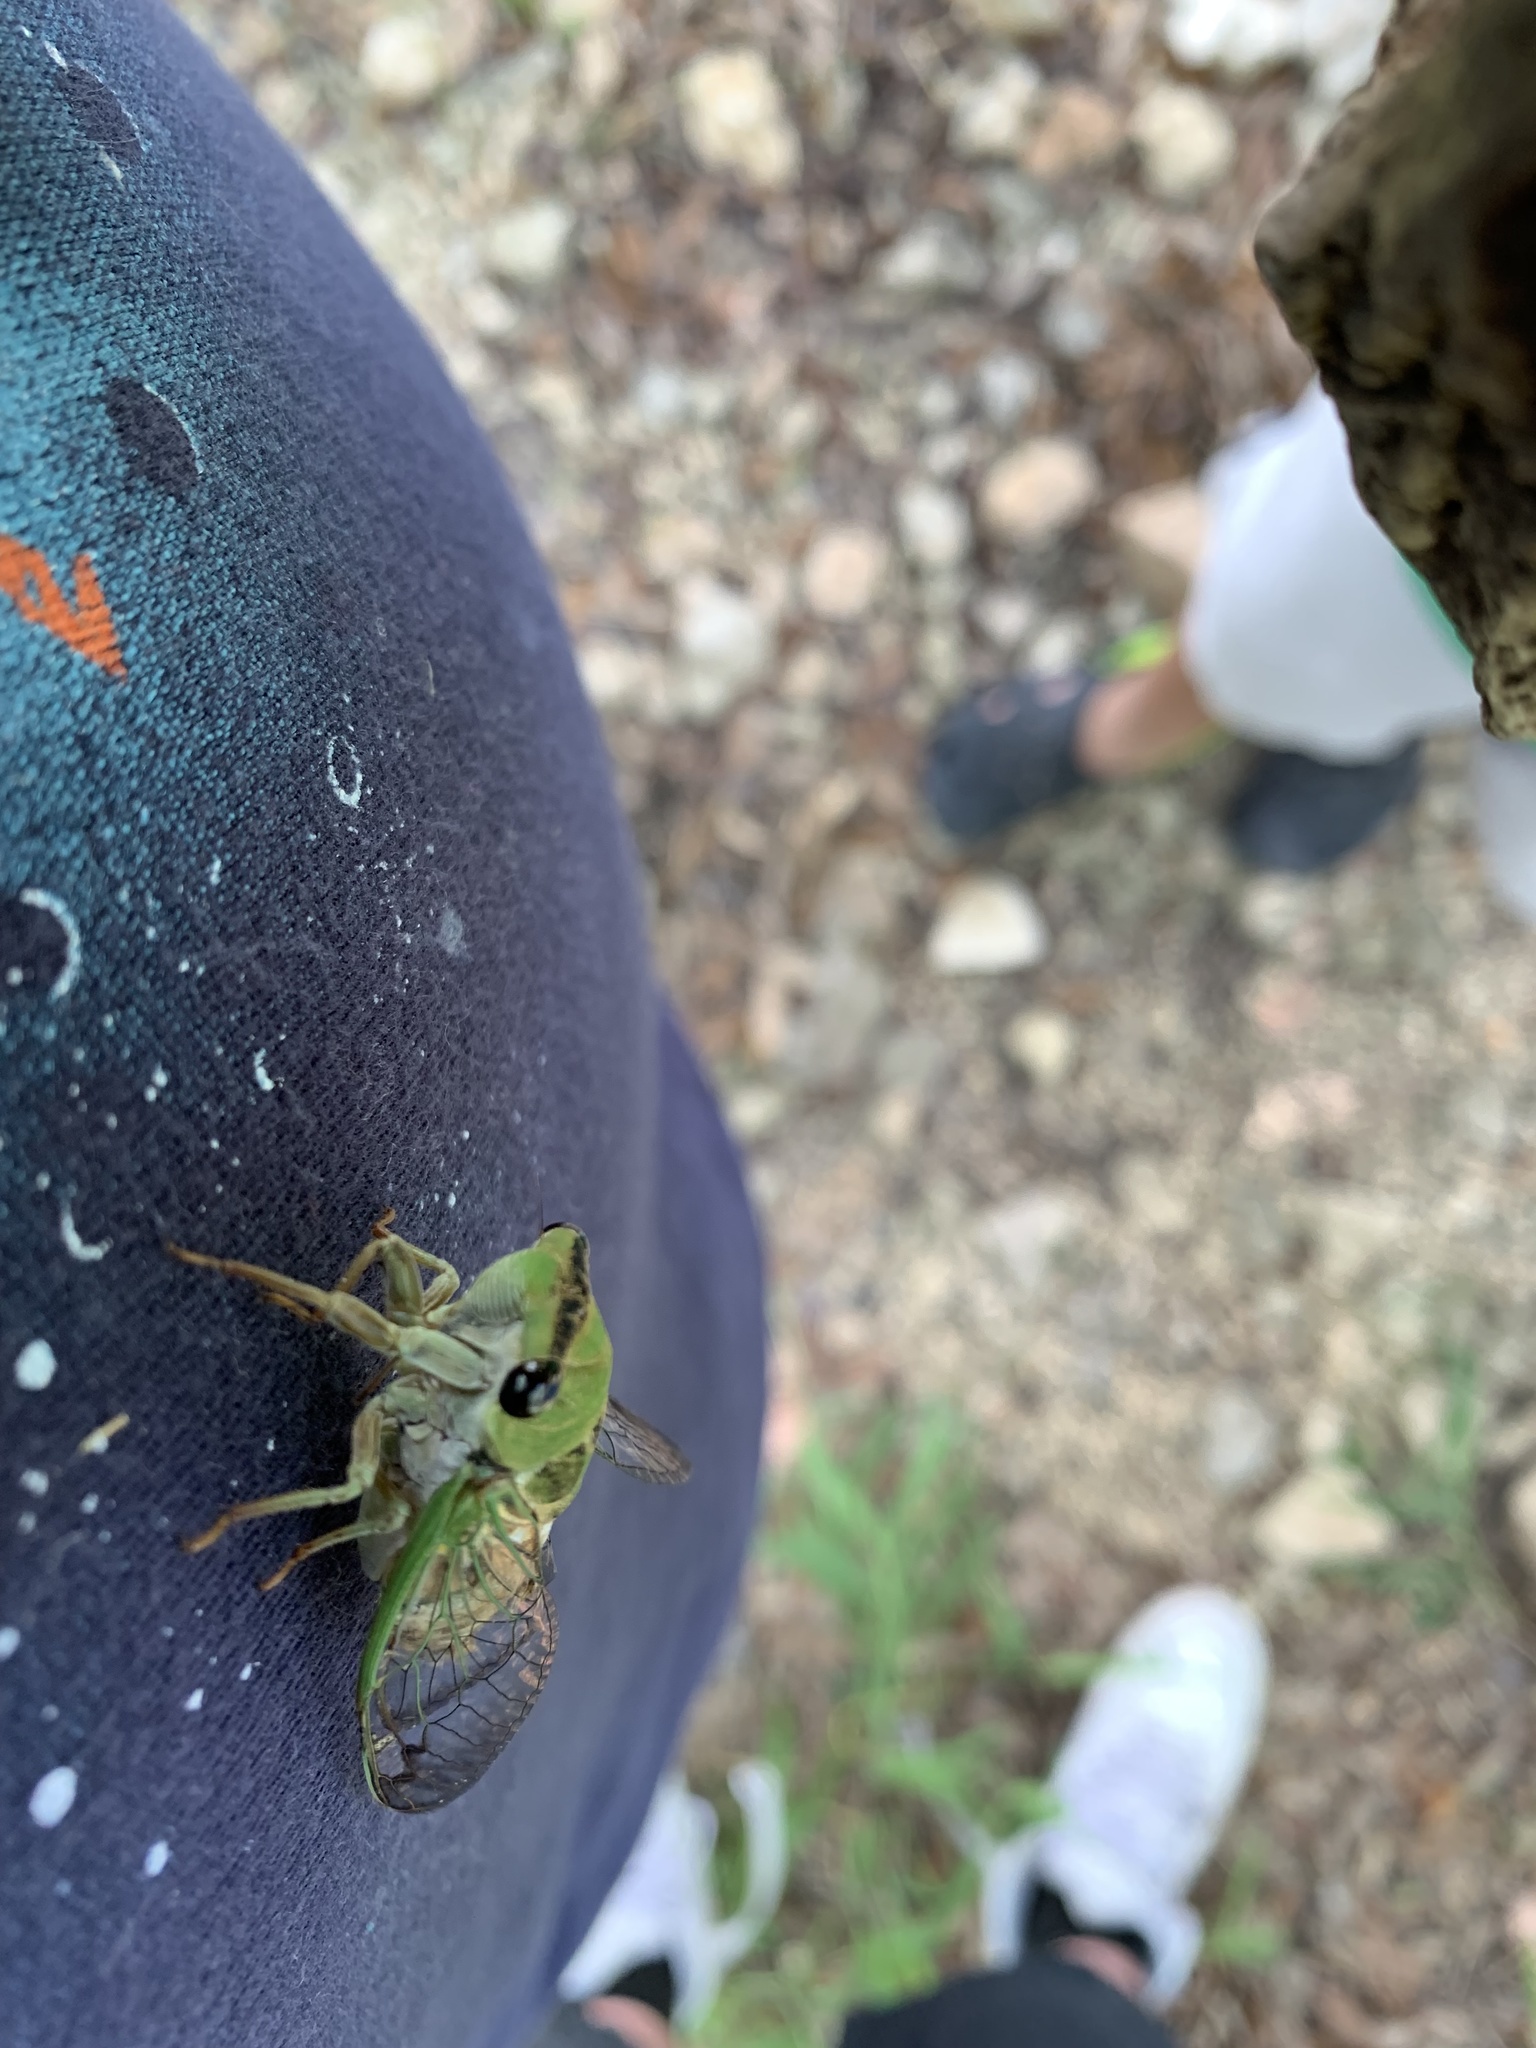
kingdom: Animalia
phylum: Arthropoda
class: Insecta
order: Hemiptera
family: Cicadidae
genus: Neotibicen
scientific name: Neotibicen superbus
